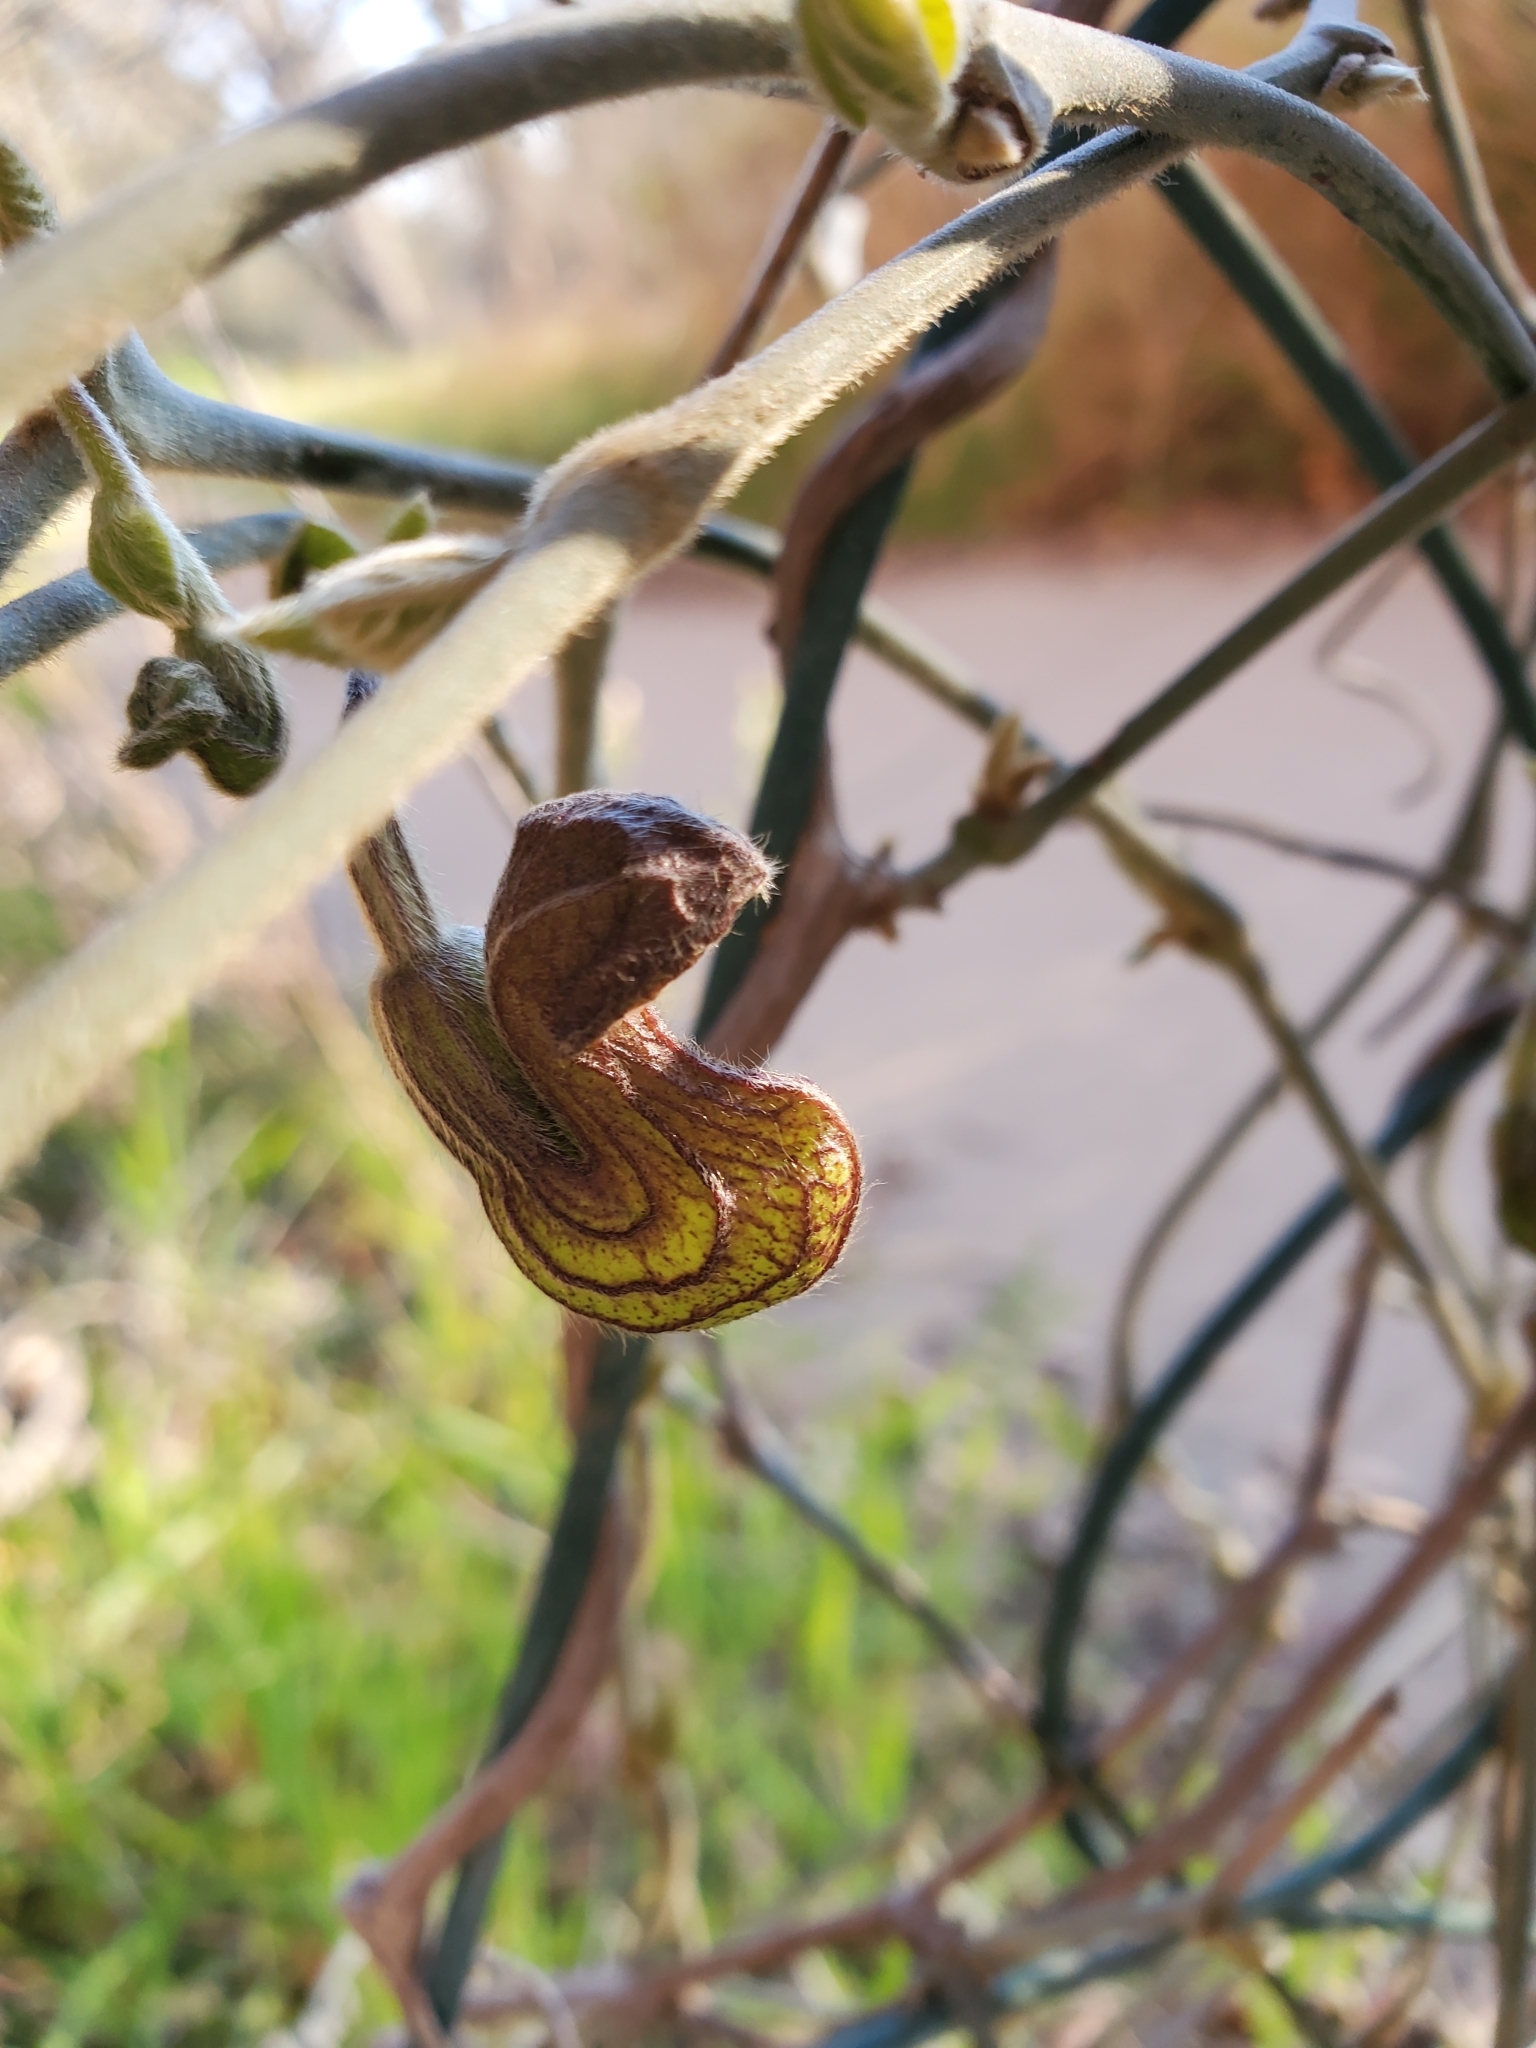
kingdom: Plantae
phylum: Tracheophyta
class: Magnoliopsida
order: Piperales
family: Aristolochiaceae
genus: Isotrema
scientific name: Isotrema californicum
